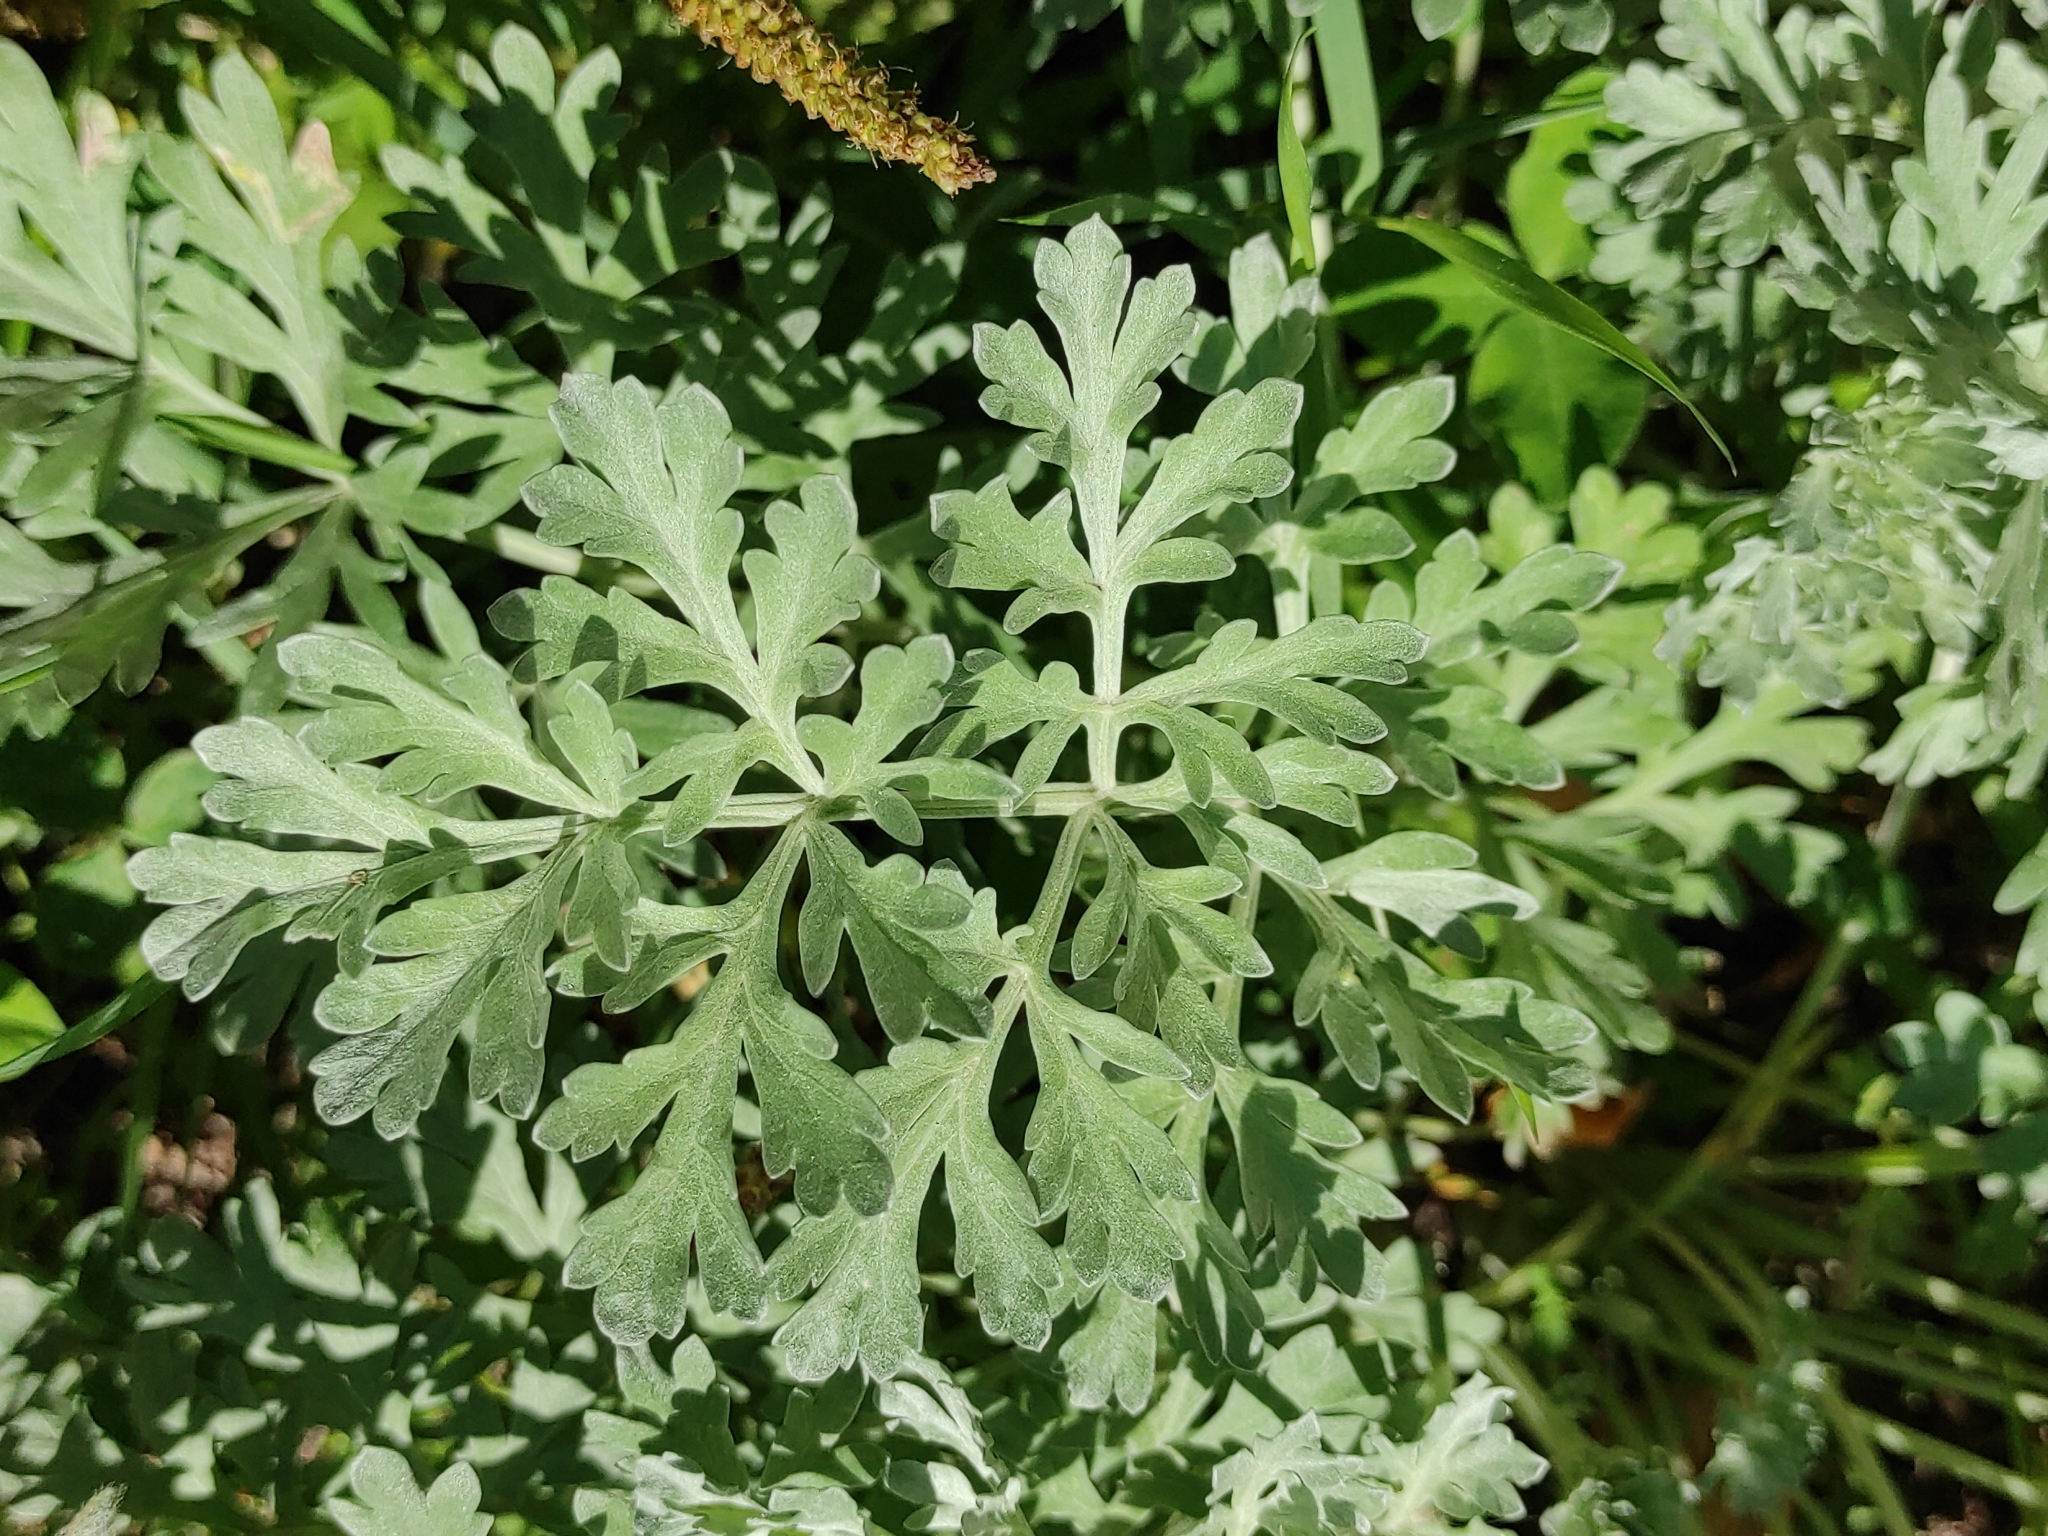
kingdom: Plantae
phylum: Tracheophyta
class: Magnoliopsida
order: Asterales
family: Asteraceae
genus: Artemisia
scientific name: Artemisia absinthium
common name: Wormwood
